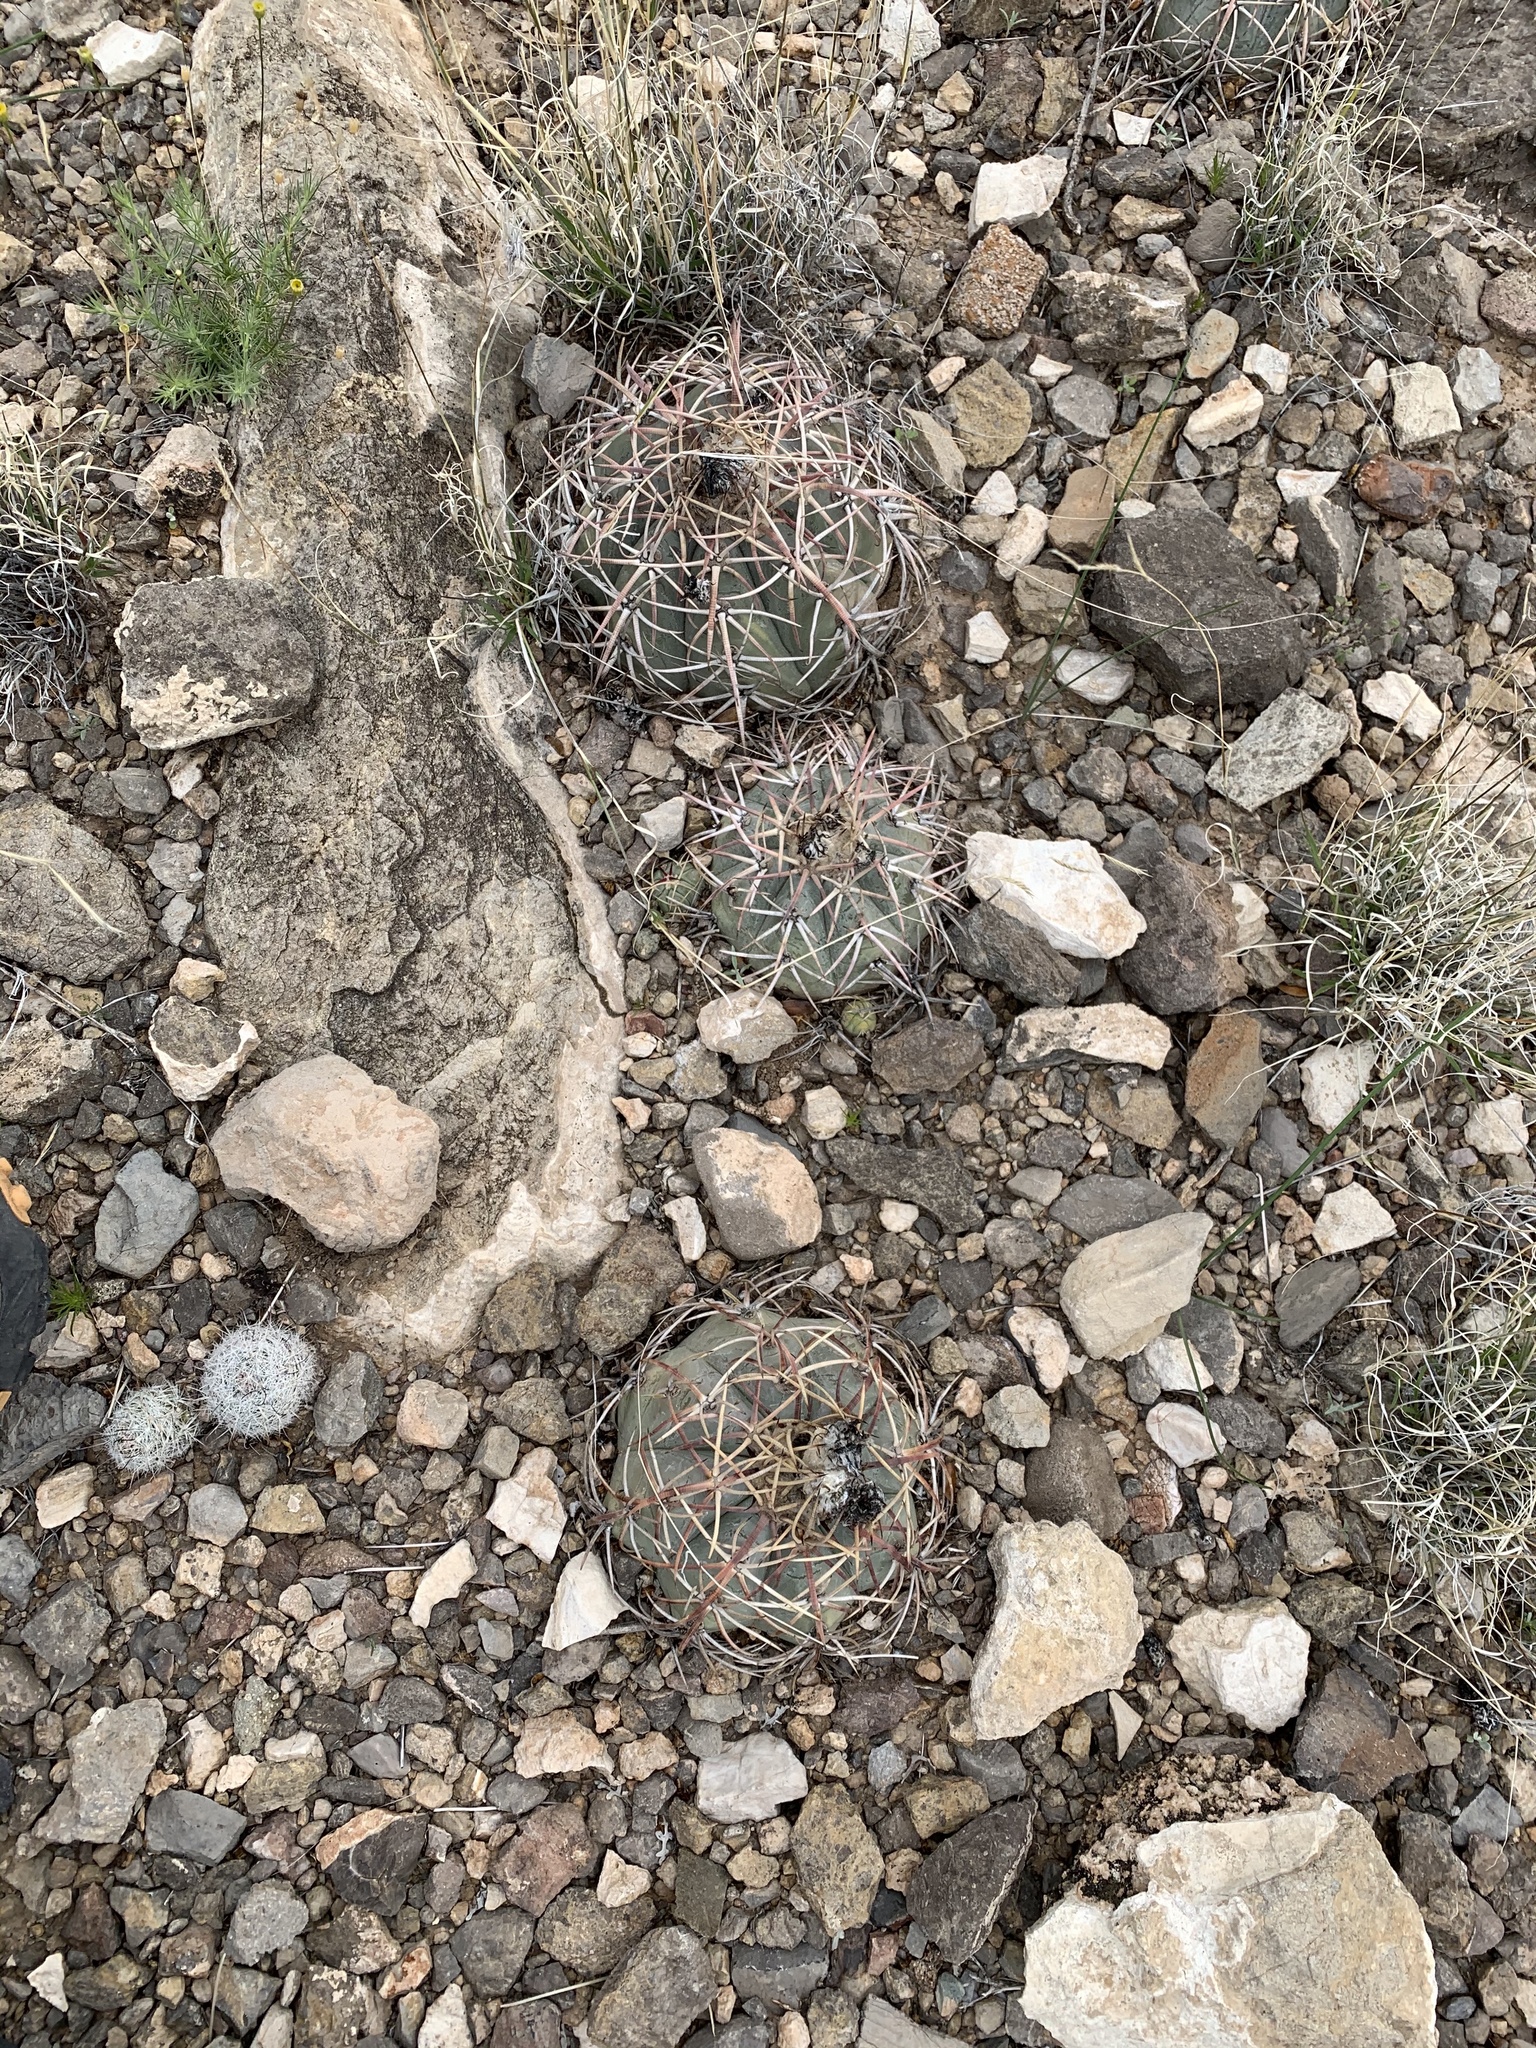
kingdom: Plantae
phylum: Tracheophyta
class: Magnoliopsida
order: Caryophyllales
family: Cactaceae
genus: Echinocactus
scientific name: Echinocactus horizonthalonius
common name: Devilshead
